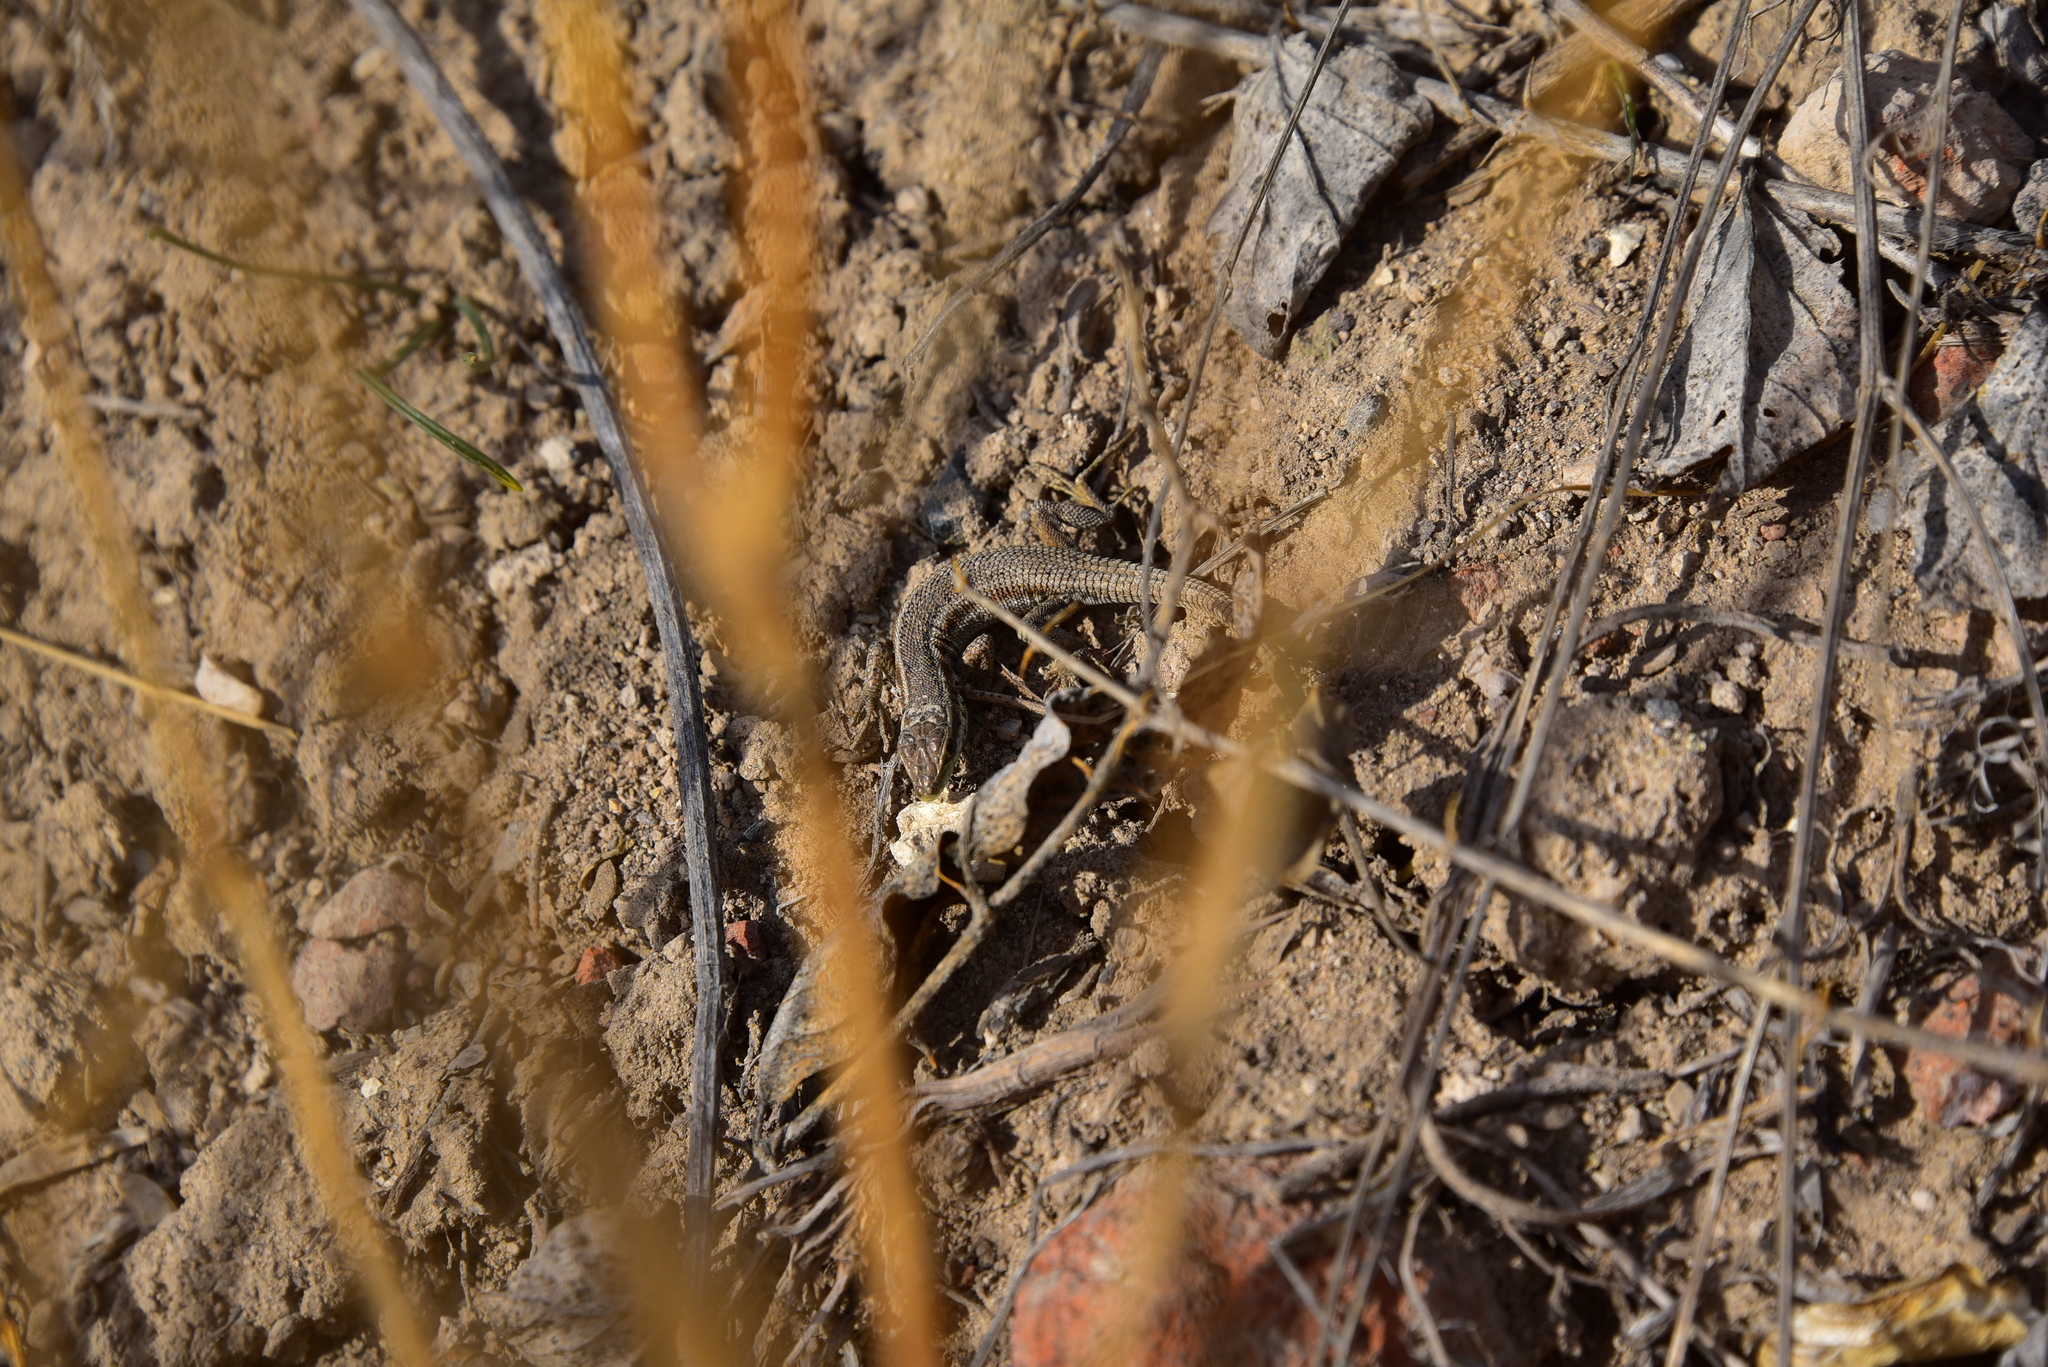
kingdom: Animalia
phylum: Chordata
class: Squamata
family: Lacertidae
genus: Ophisops
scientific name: Ophisops elegans
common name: Snake-eyed lizard
